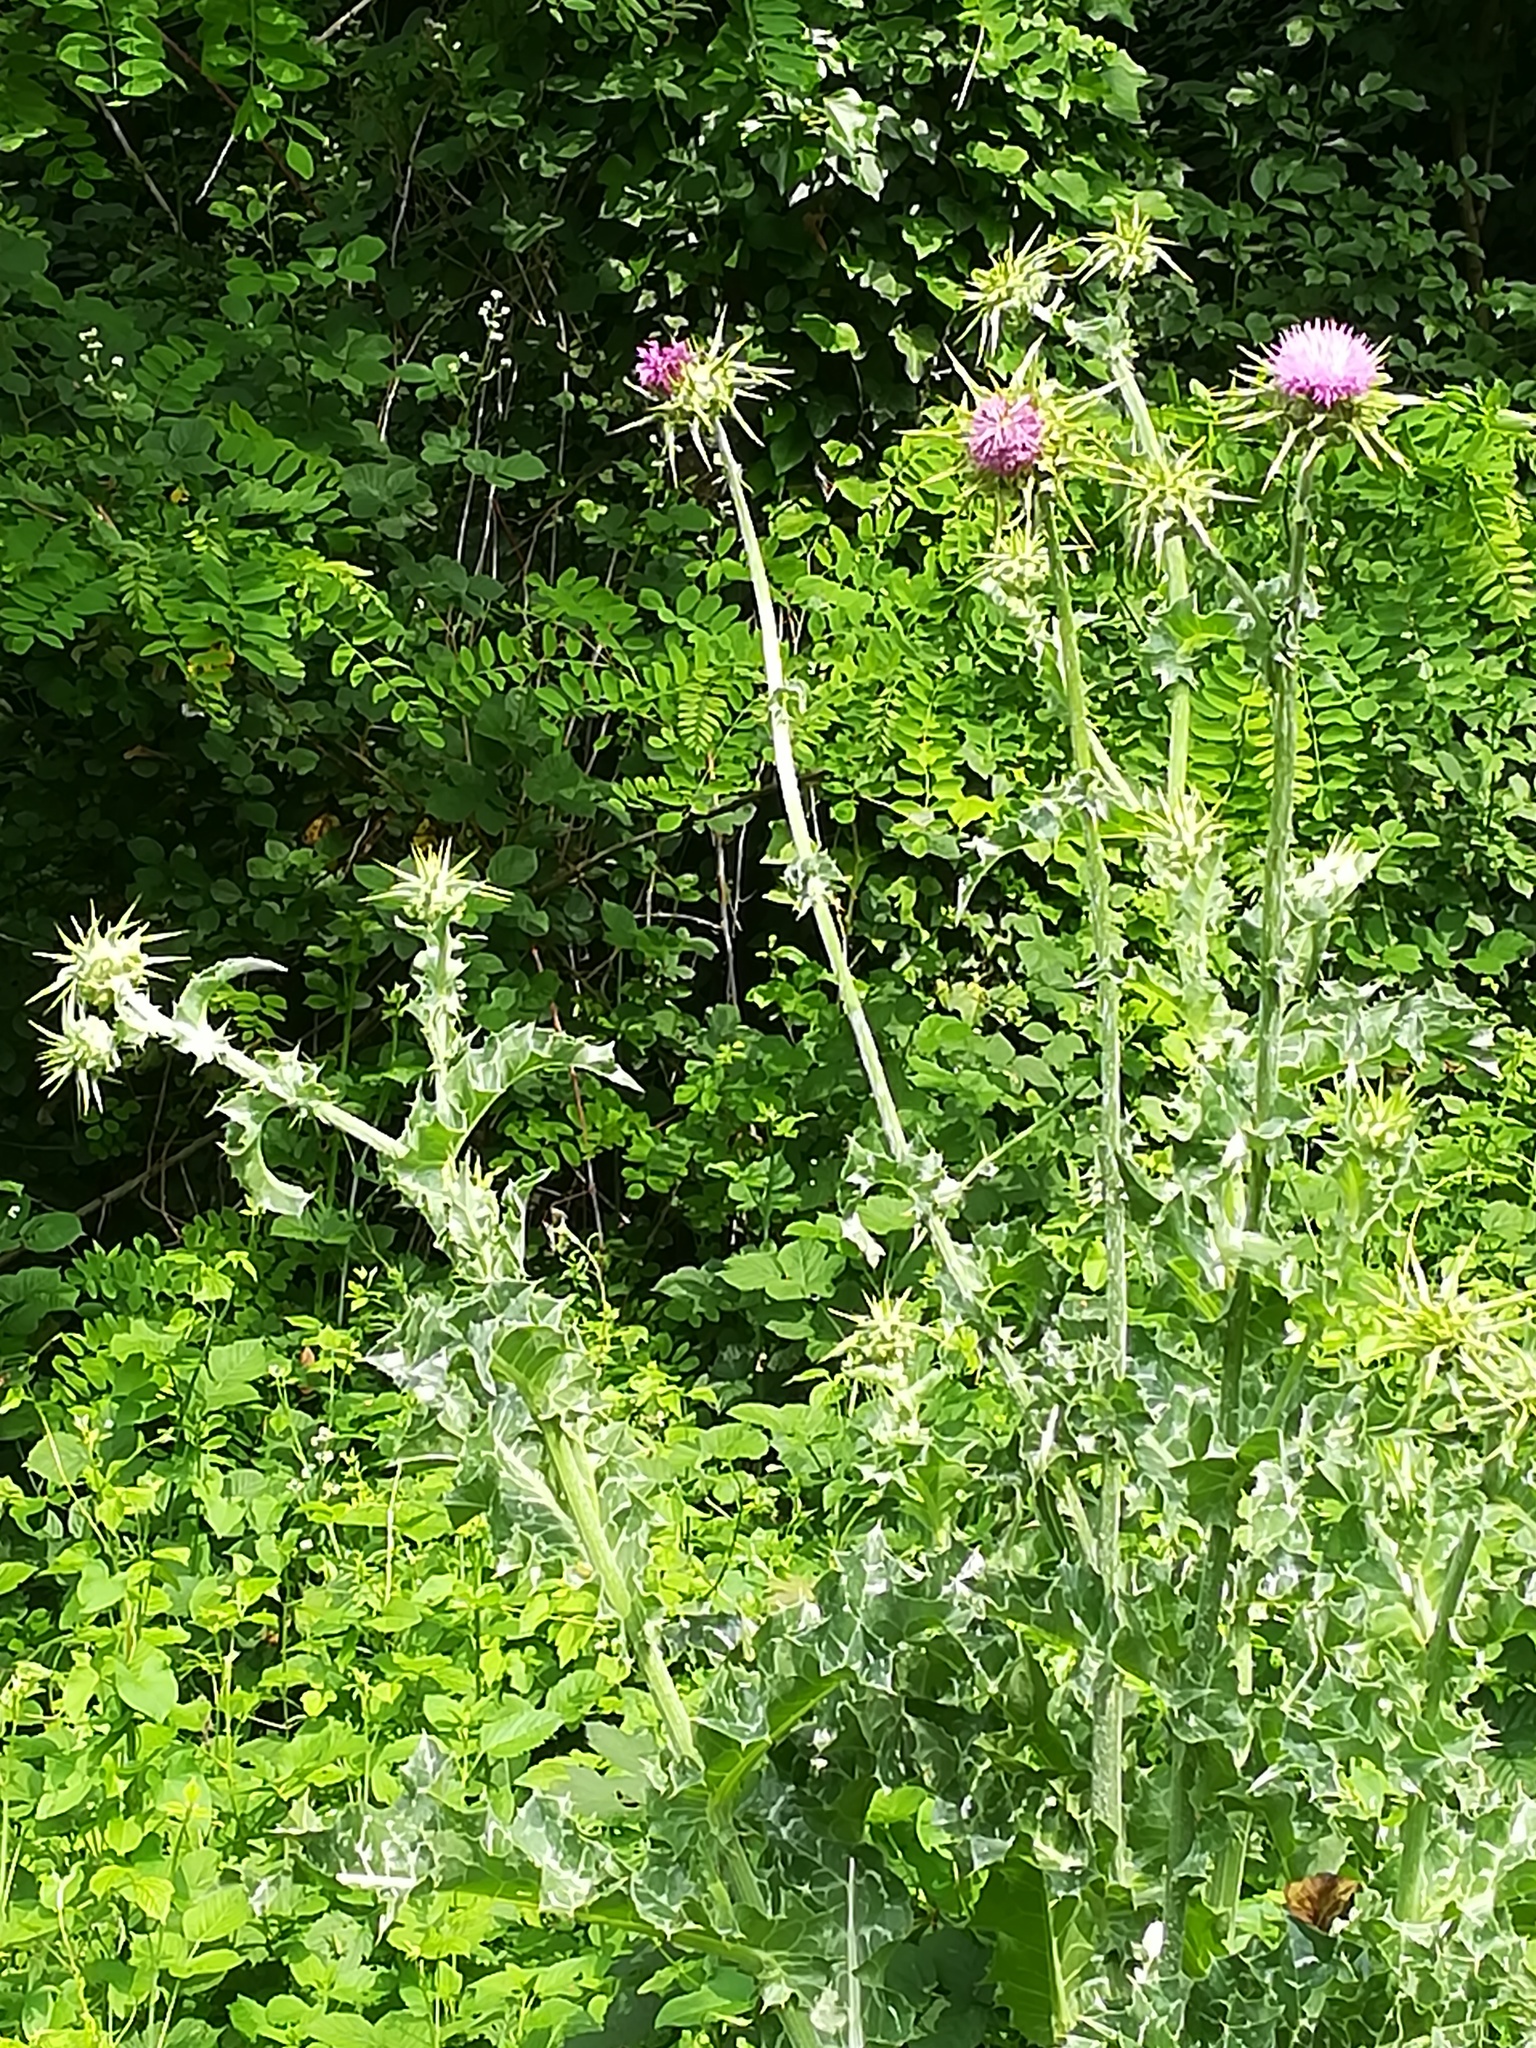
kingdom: Plantae
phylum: Tracheophyta
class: Magnoliopsida
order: Asterales
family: Asteraceae
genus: Silybum
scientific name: Silybum marianum
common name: Milk thistle
